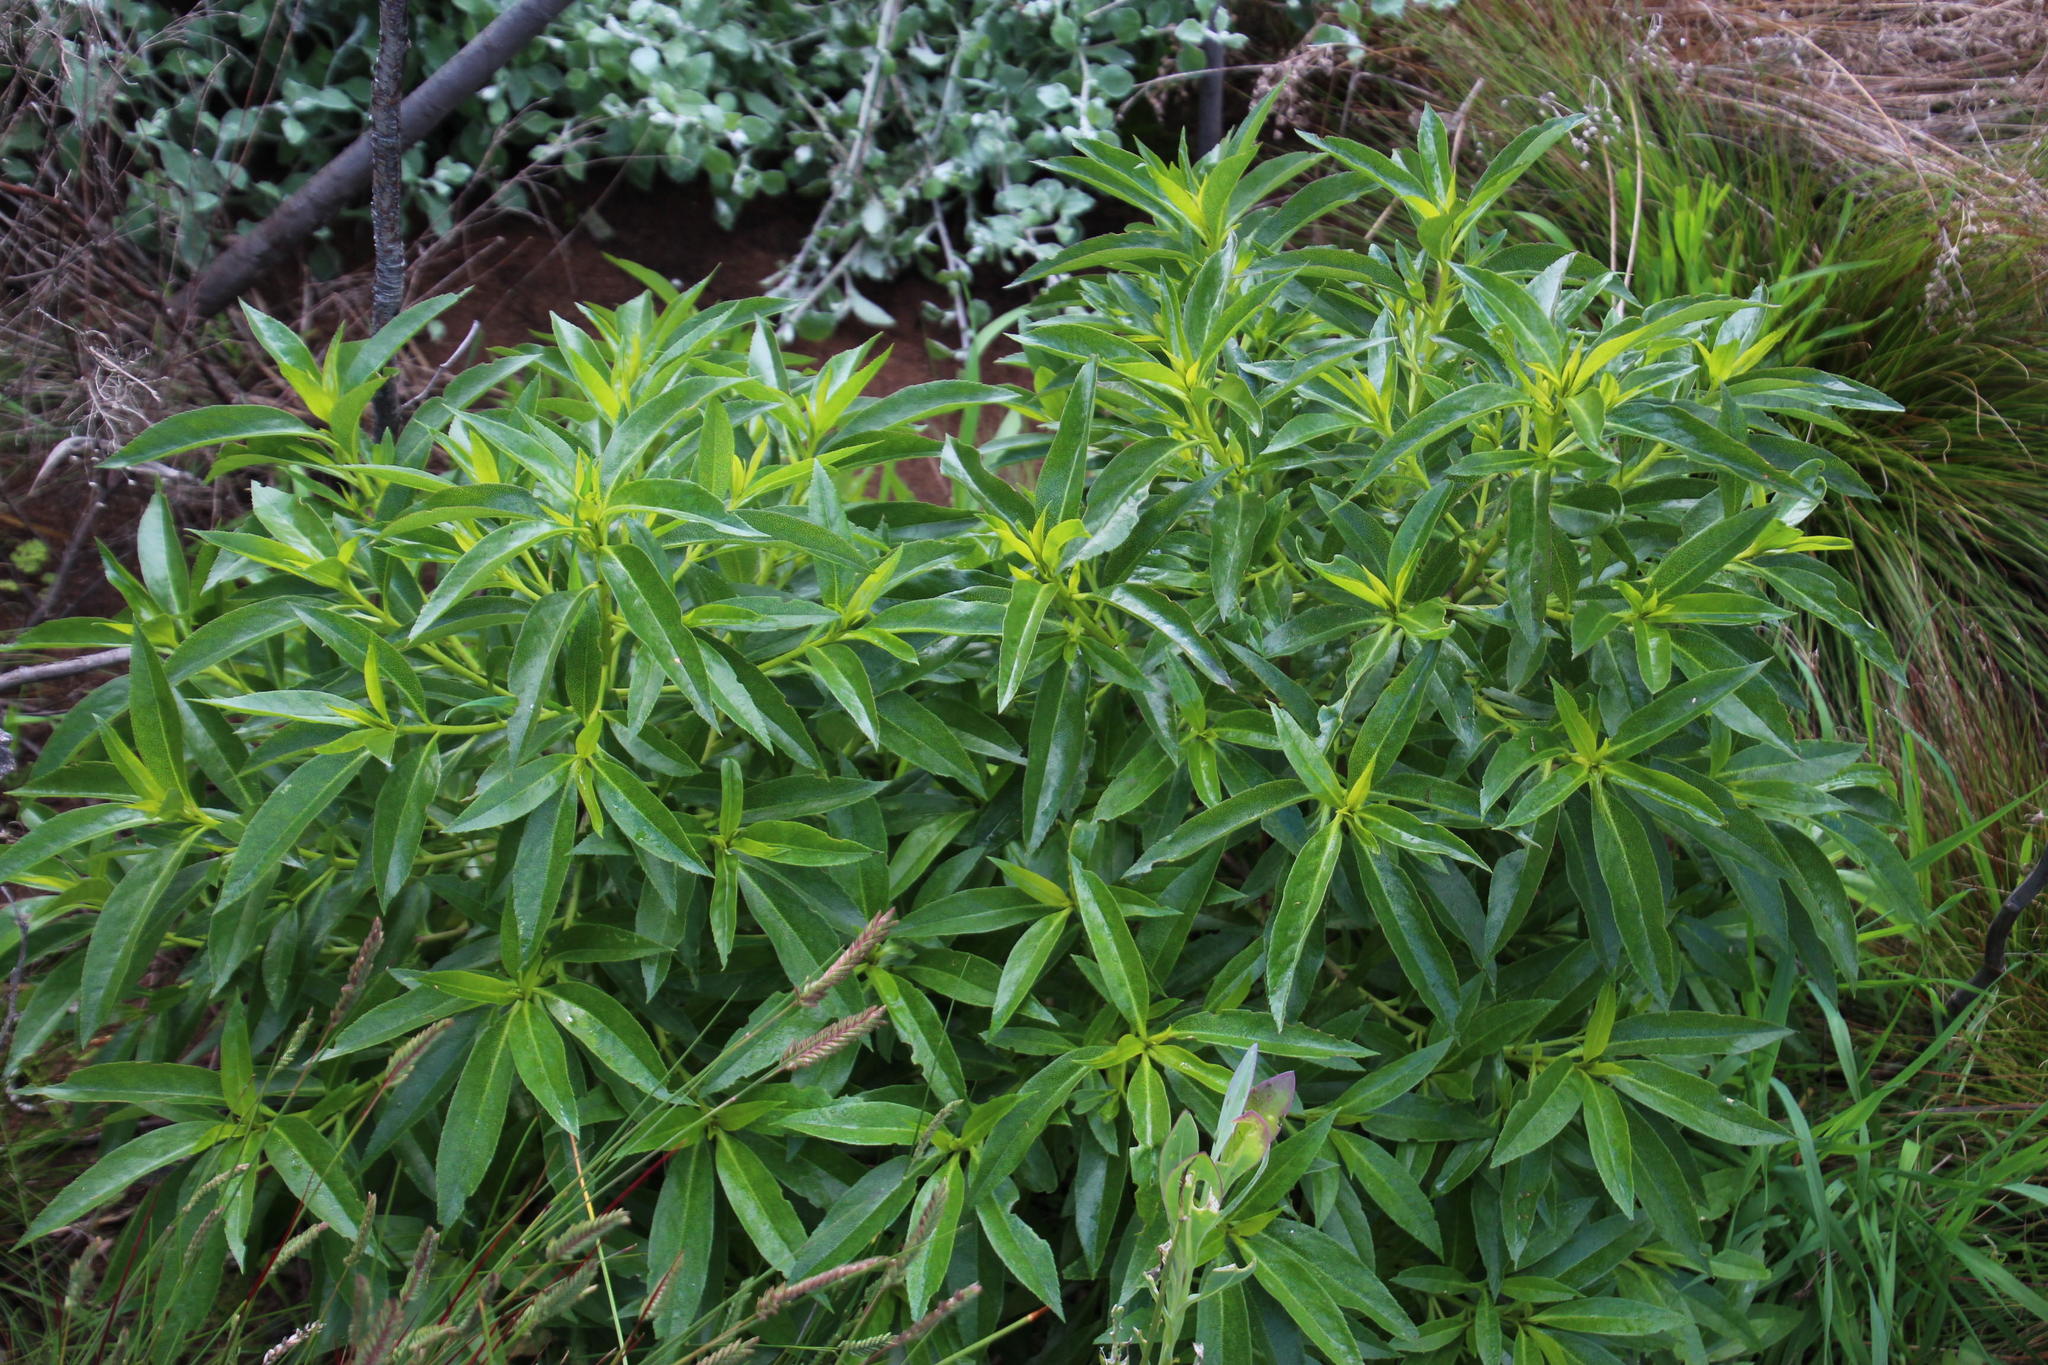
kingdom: Plantae
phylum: Tracheophyta
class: Magnoliopsida
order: Lamiales
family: Scrophulariaceae
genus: Myoporum
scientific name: Myoporum laetum
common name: Ngaio tree
